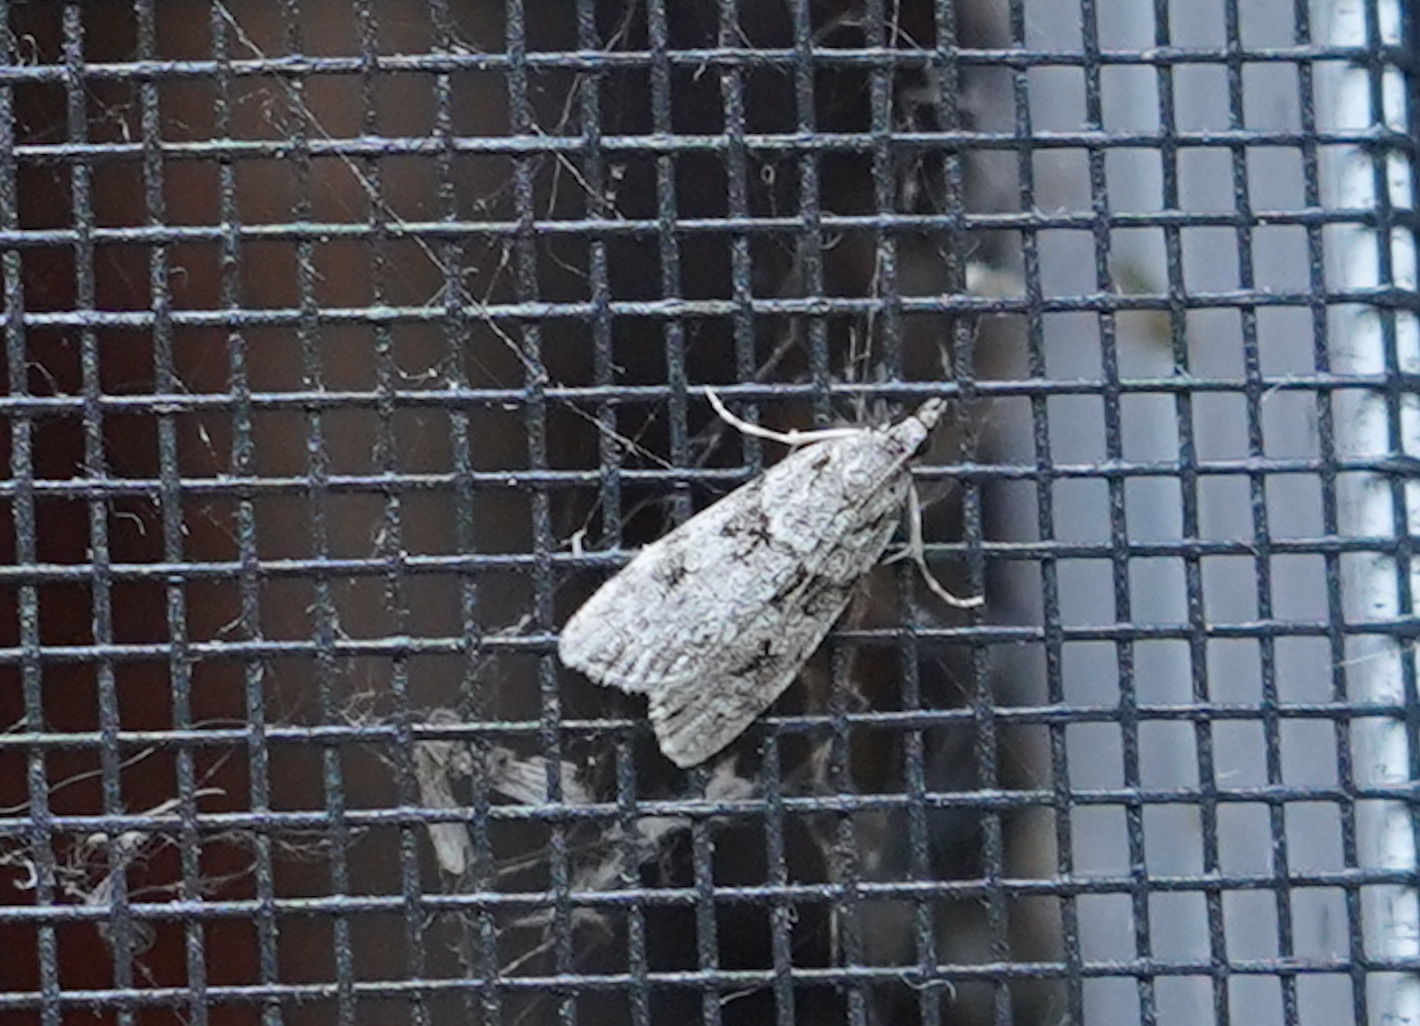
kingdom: Animalia
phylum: Arthropoda
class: Insecta
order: Lepidoptera
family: Crambidae
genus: Scoparia
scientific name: Scoparia biplagialis
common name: Double-striped scoparia moth
